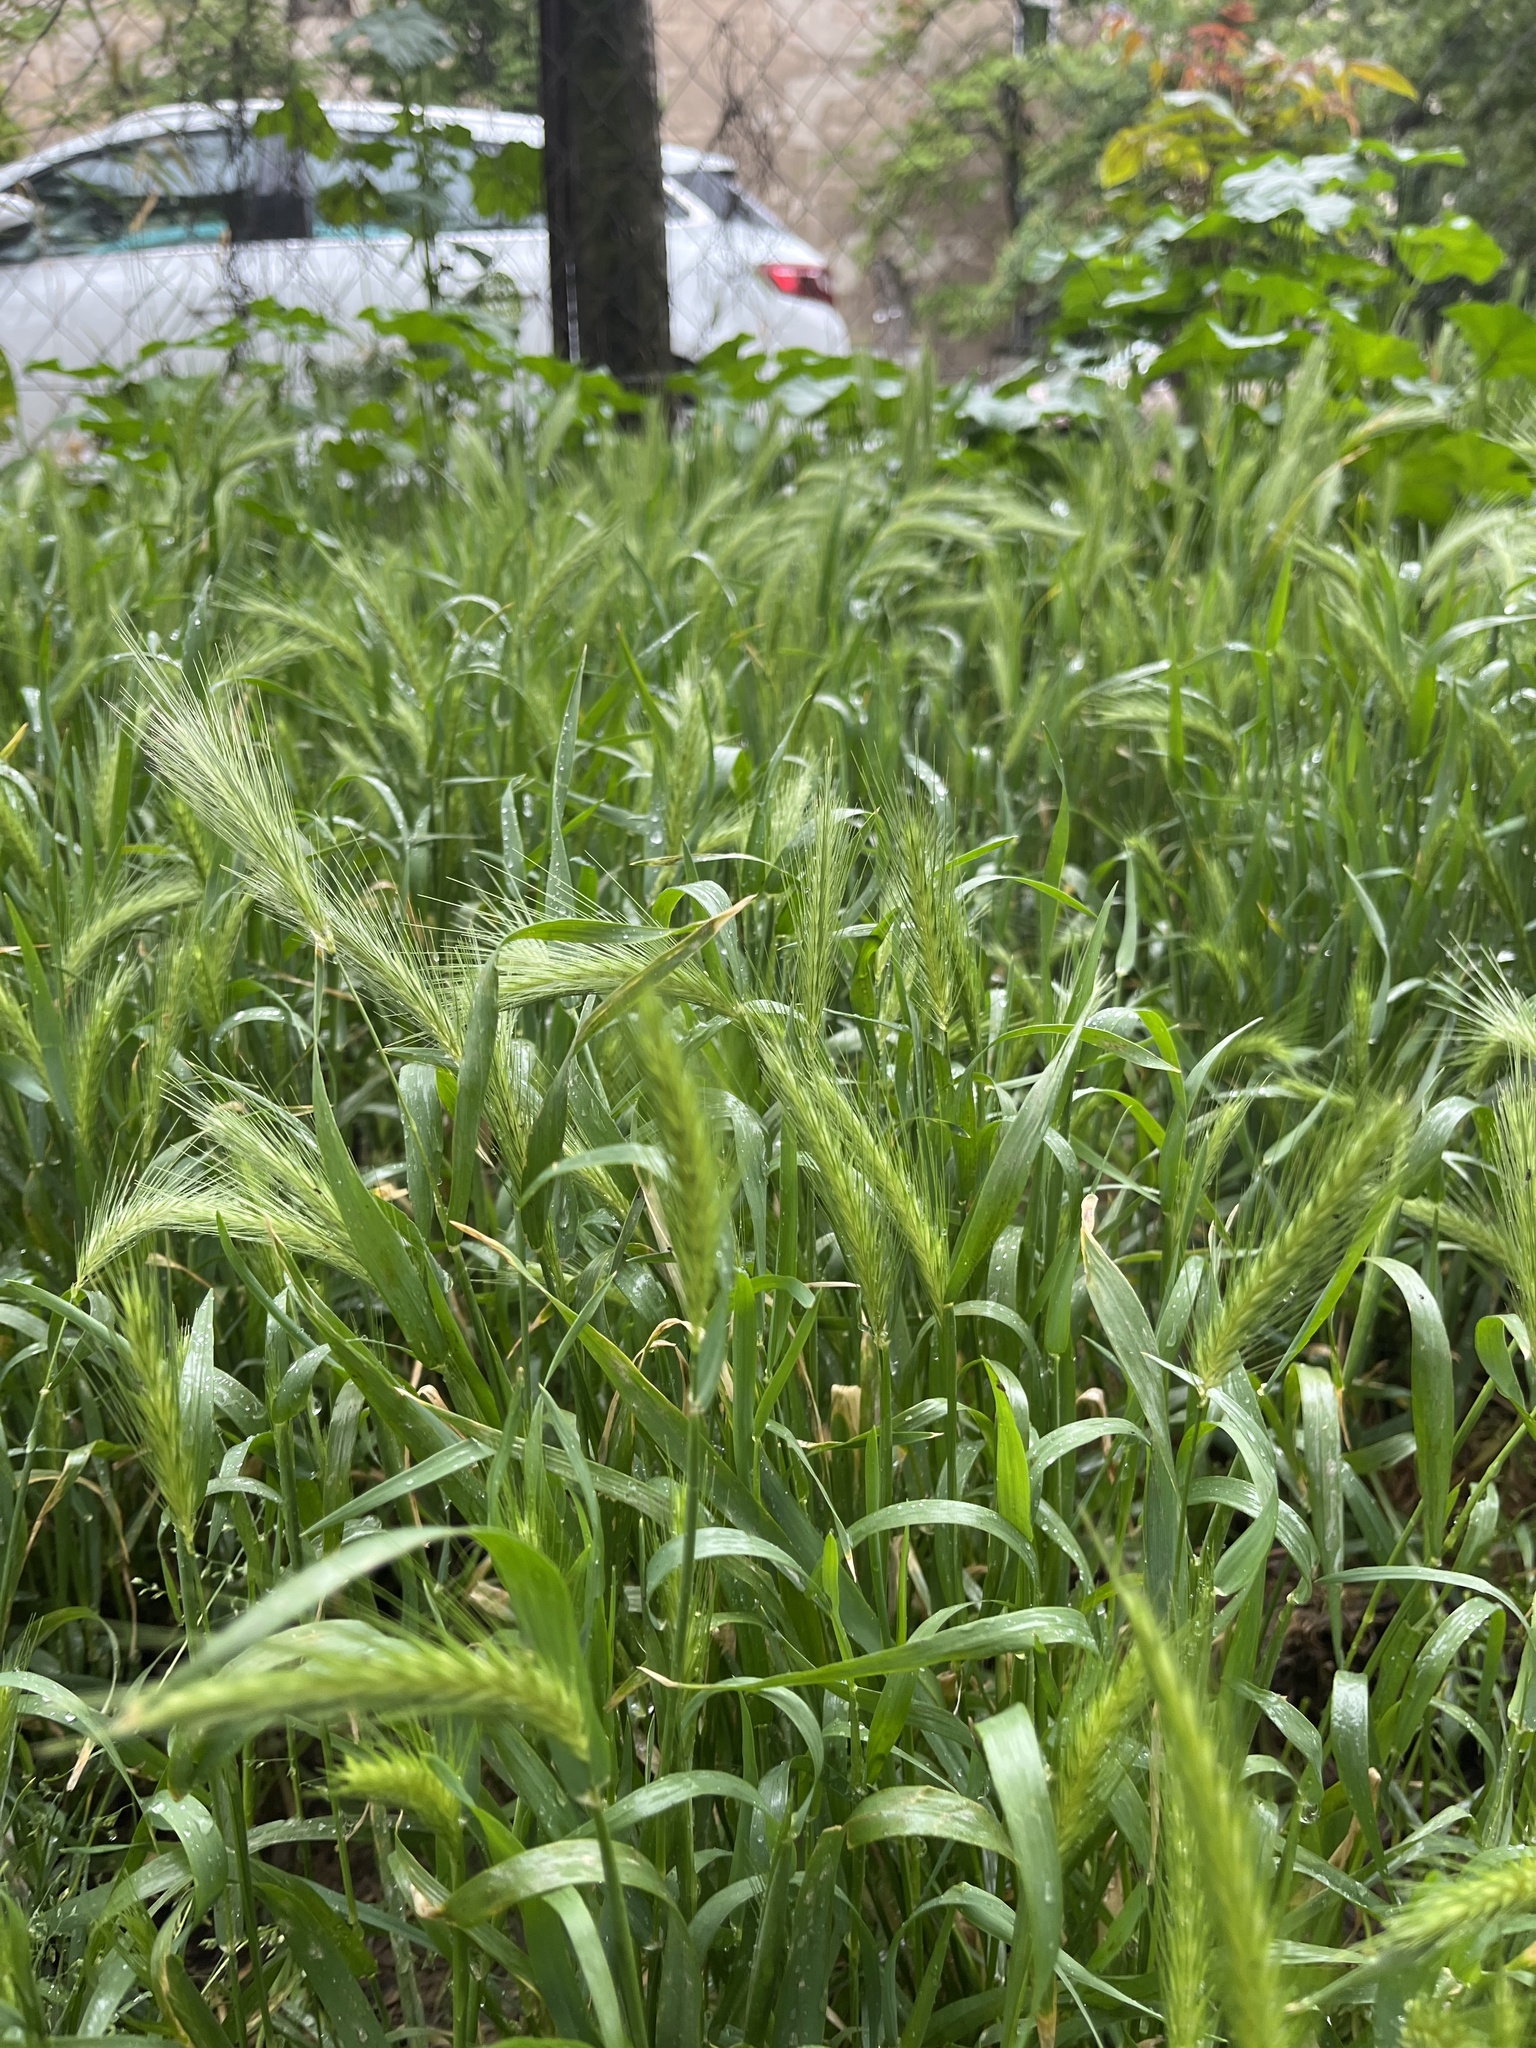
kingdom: Plantae
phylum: Tracheophyta
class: Liliopsida
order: Poales
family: Poaceae
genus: Hordeum
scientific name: Hordeum murinum
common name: Wall barley
